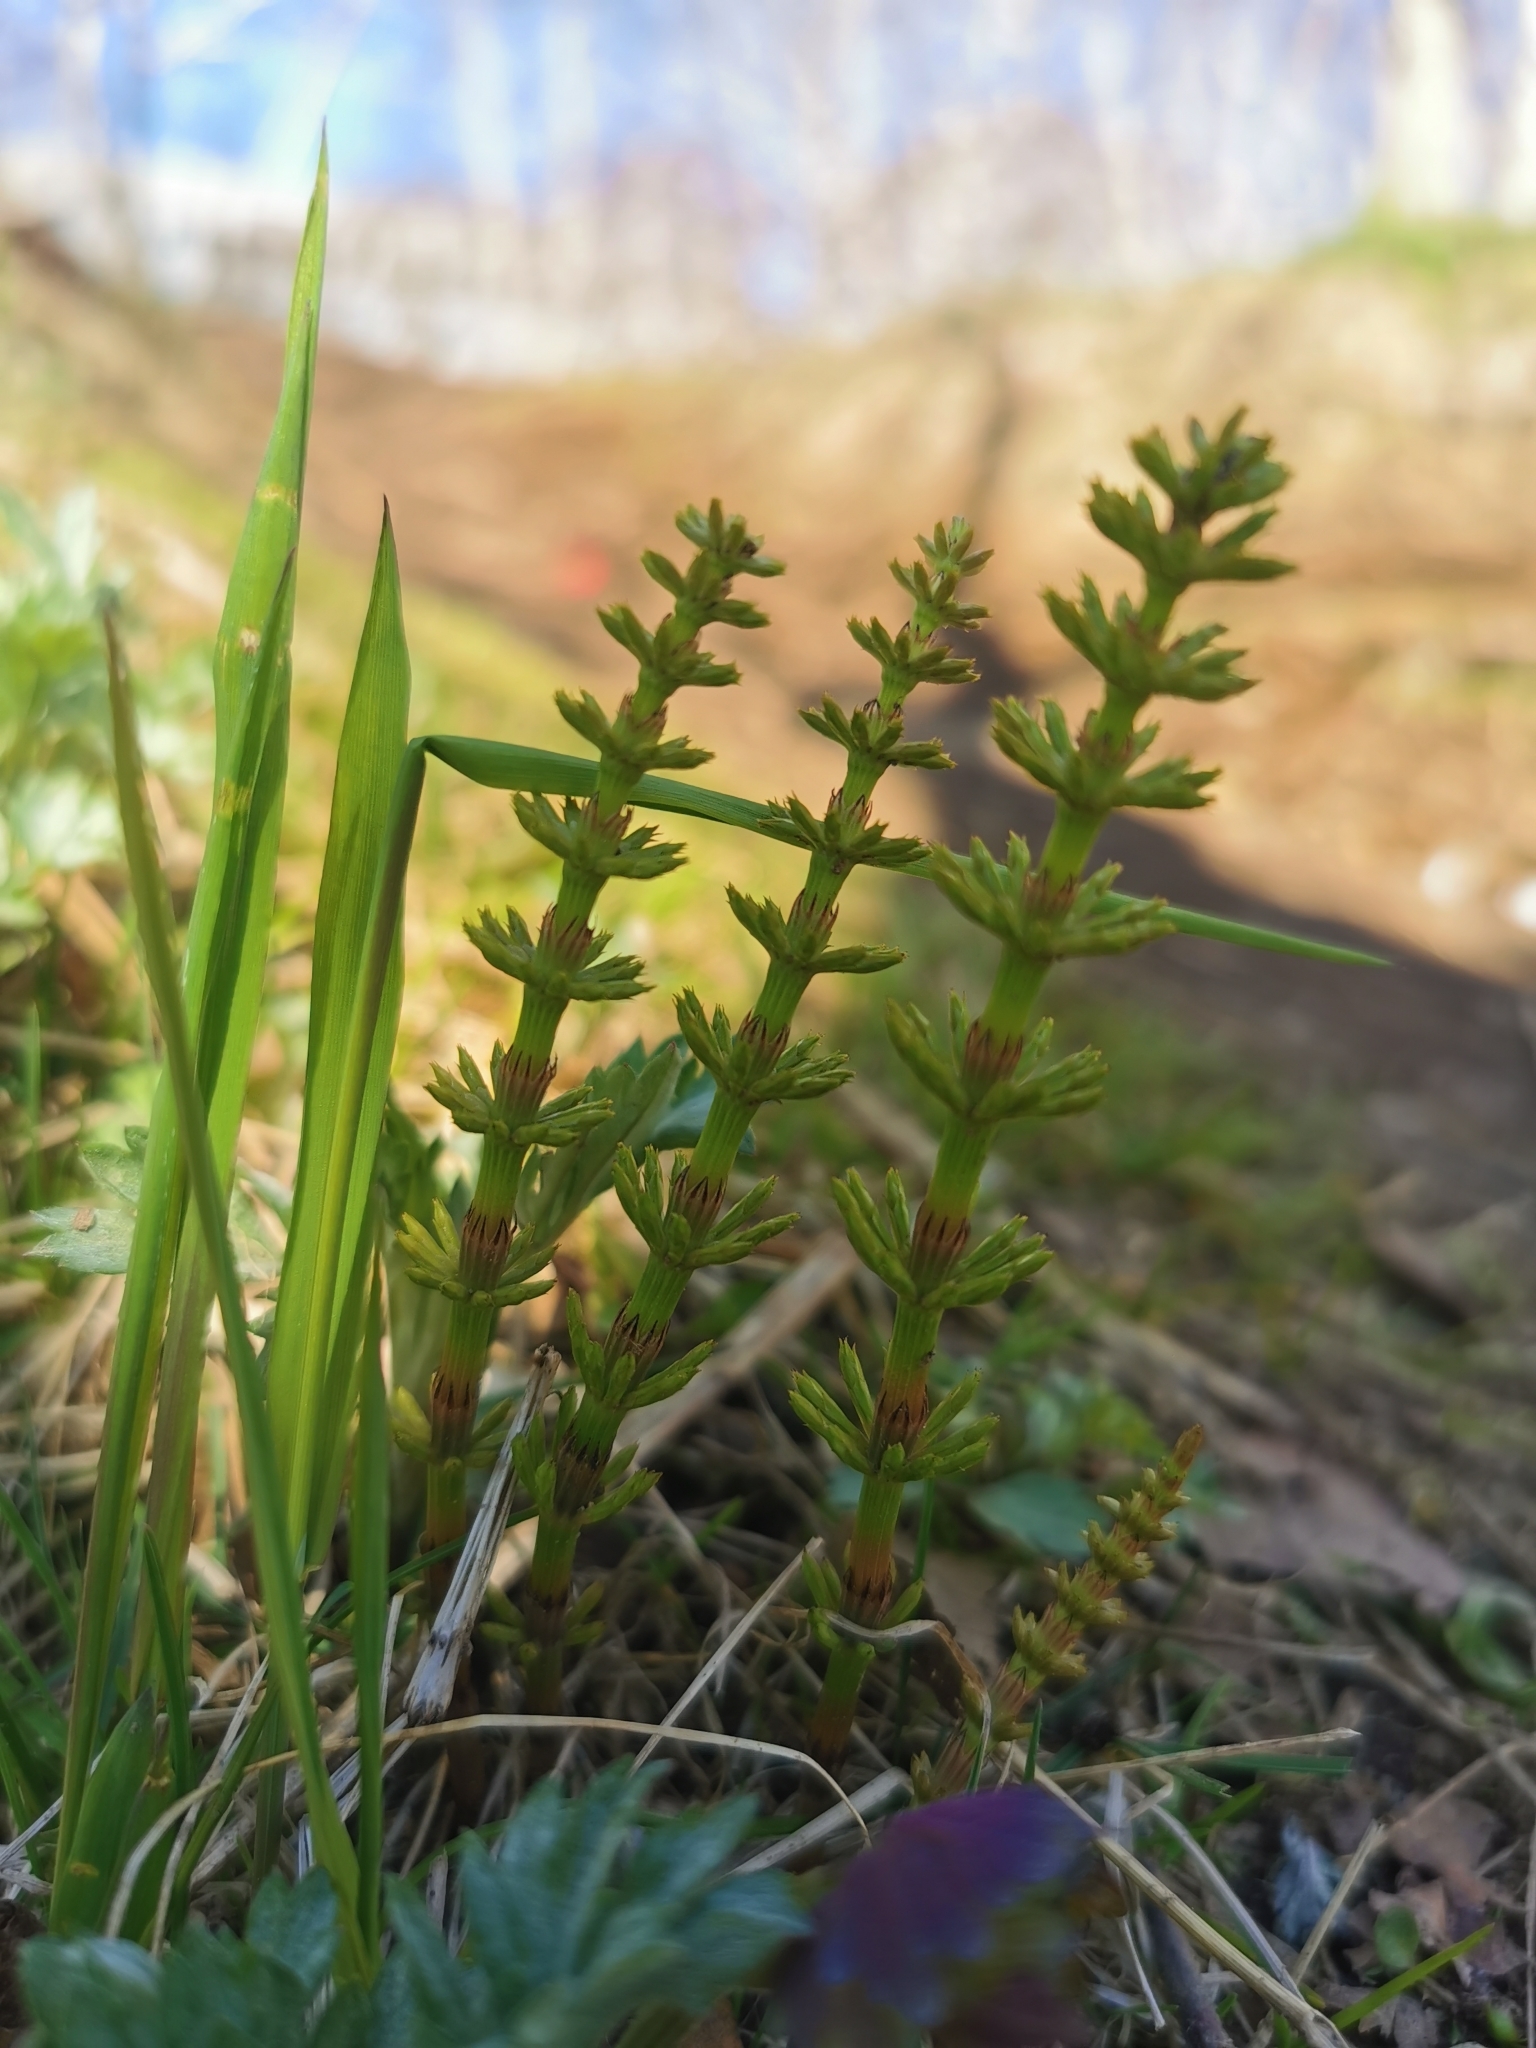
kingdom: Plantae
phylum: Tracheophyta
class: Polypodiopsida
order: Equisetales
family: Equisetaceae
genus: Equisetum
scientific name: Equisetum pratense
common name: Meadow horsetail
